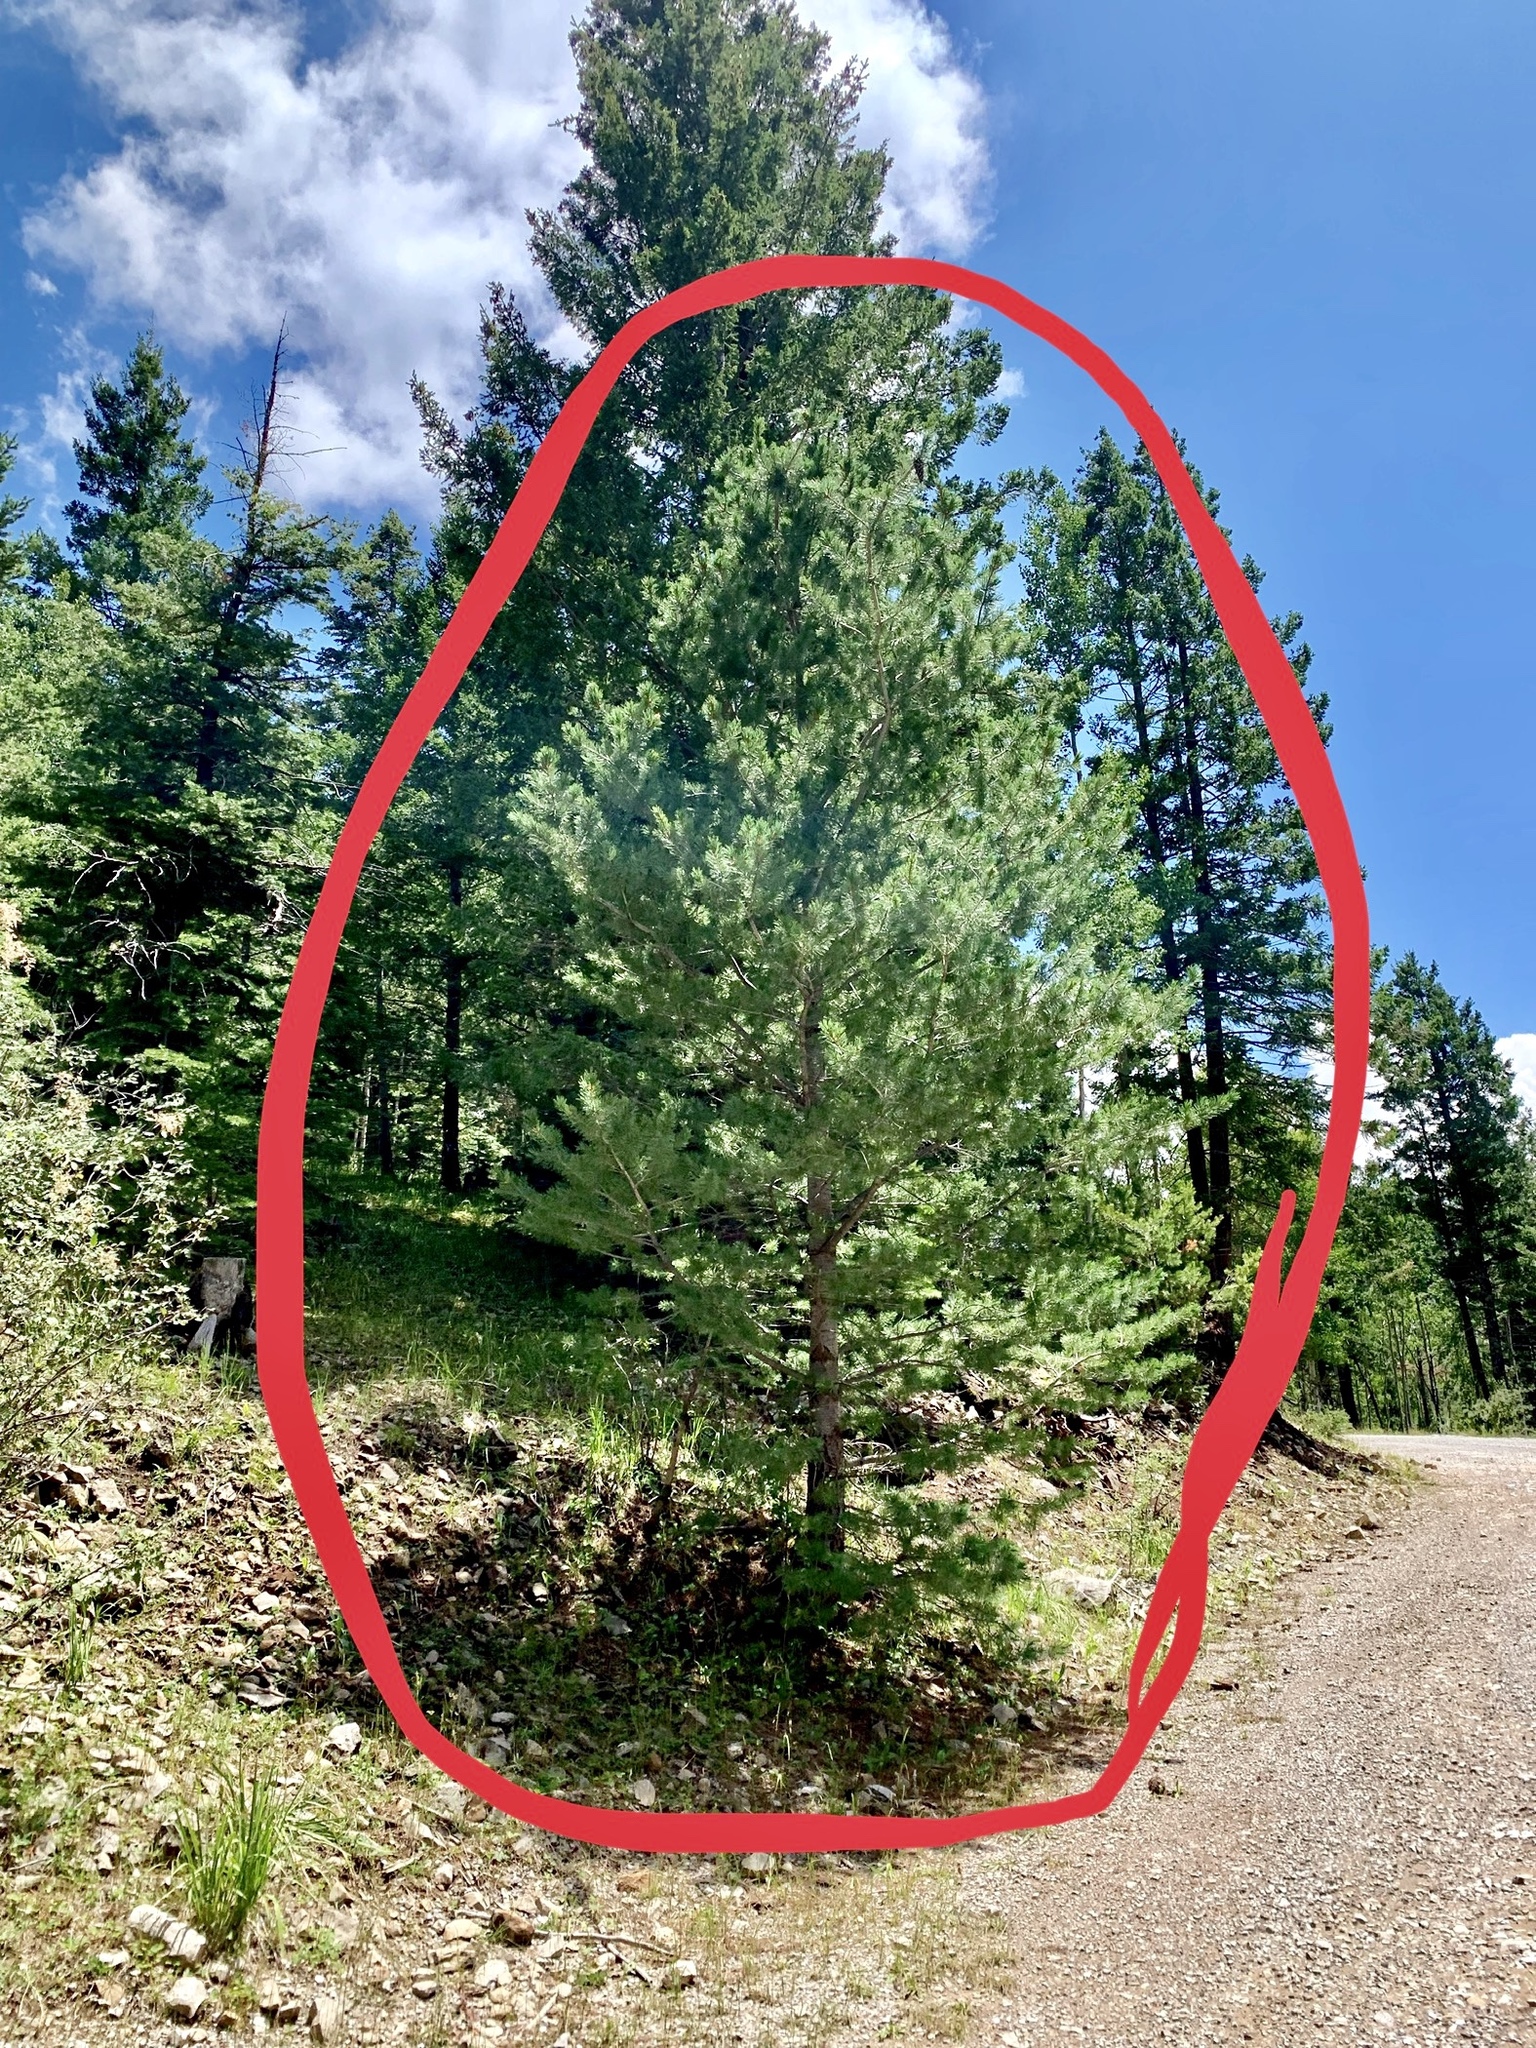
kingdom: Plantae
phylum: Tracheophyta
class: Pinopsida
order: Pinales
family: Pinaceae
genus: Pinus
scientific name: Pinus strobiformis
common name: Southwestern white pine
